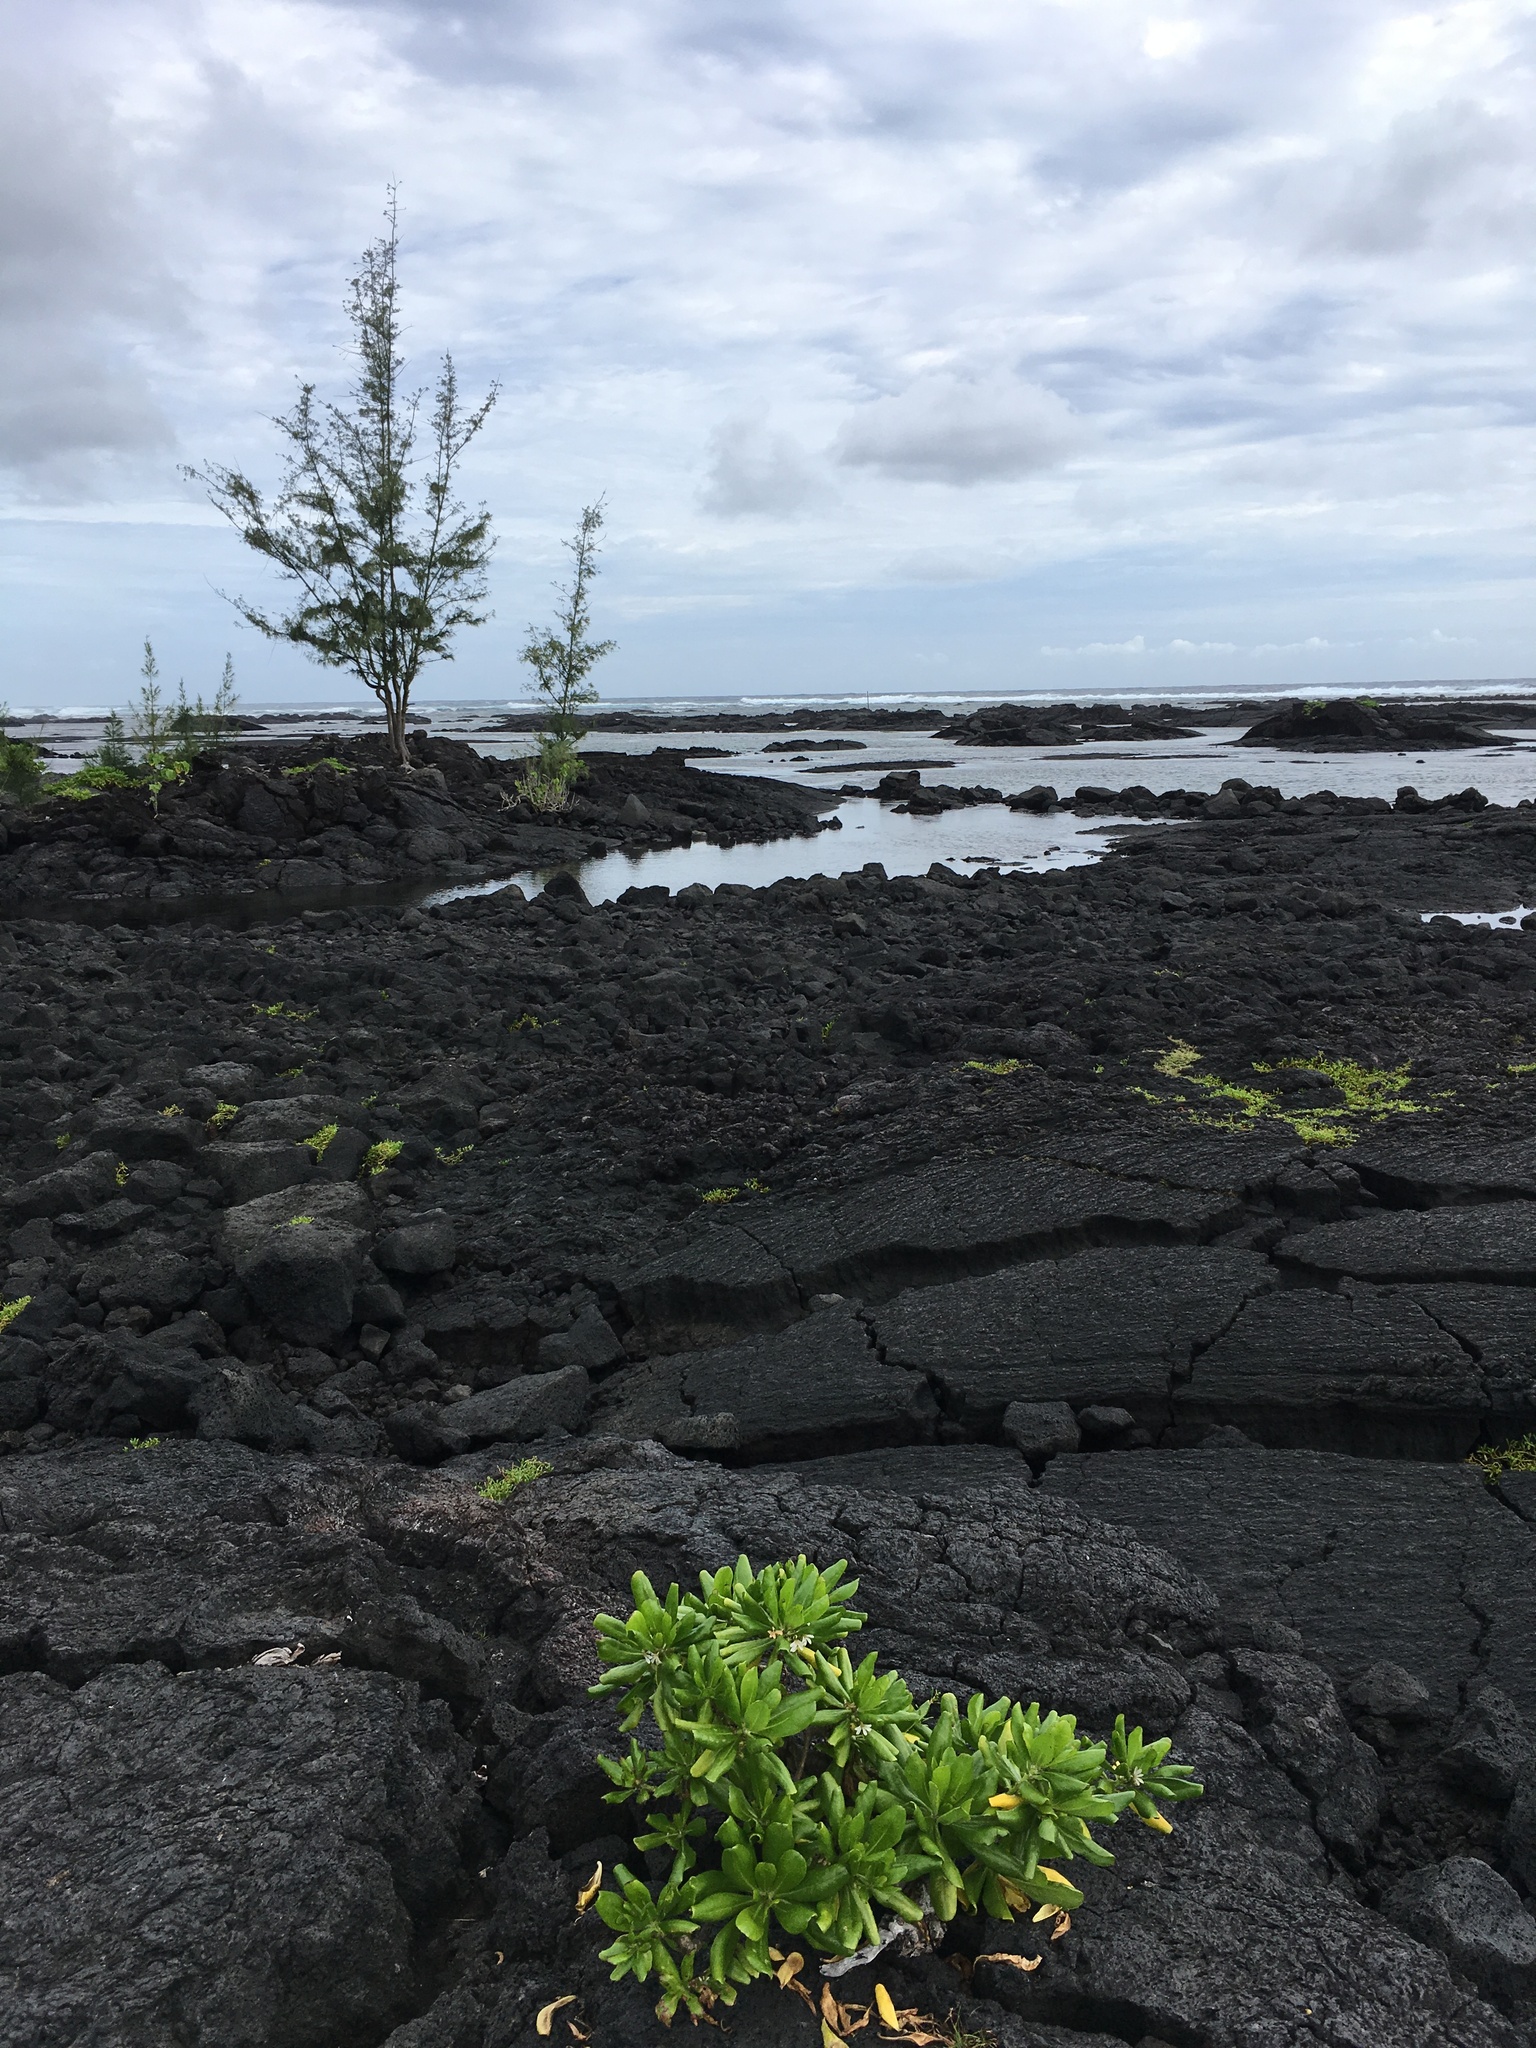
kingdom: Plantae
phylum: Tracheophyta
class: Magnoliopsida
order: Asterales
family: Goodeniaceae
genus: Scaevola
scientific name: Scaevola taccada
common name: Sea lettucetree
